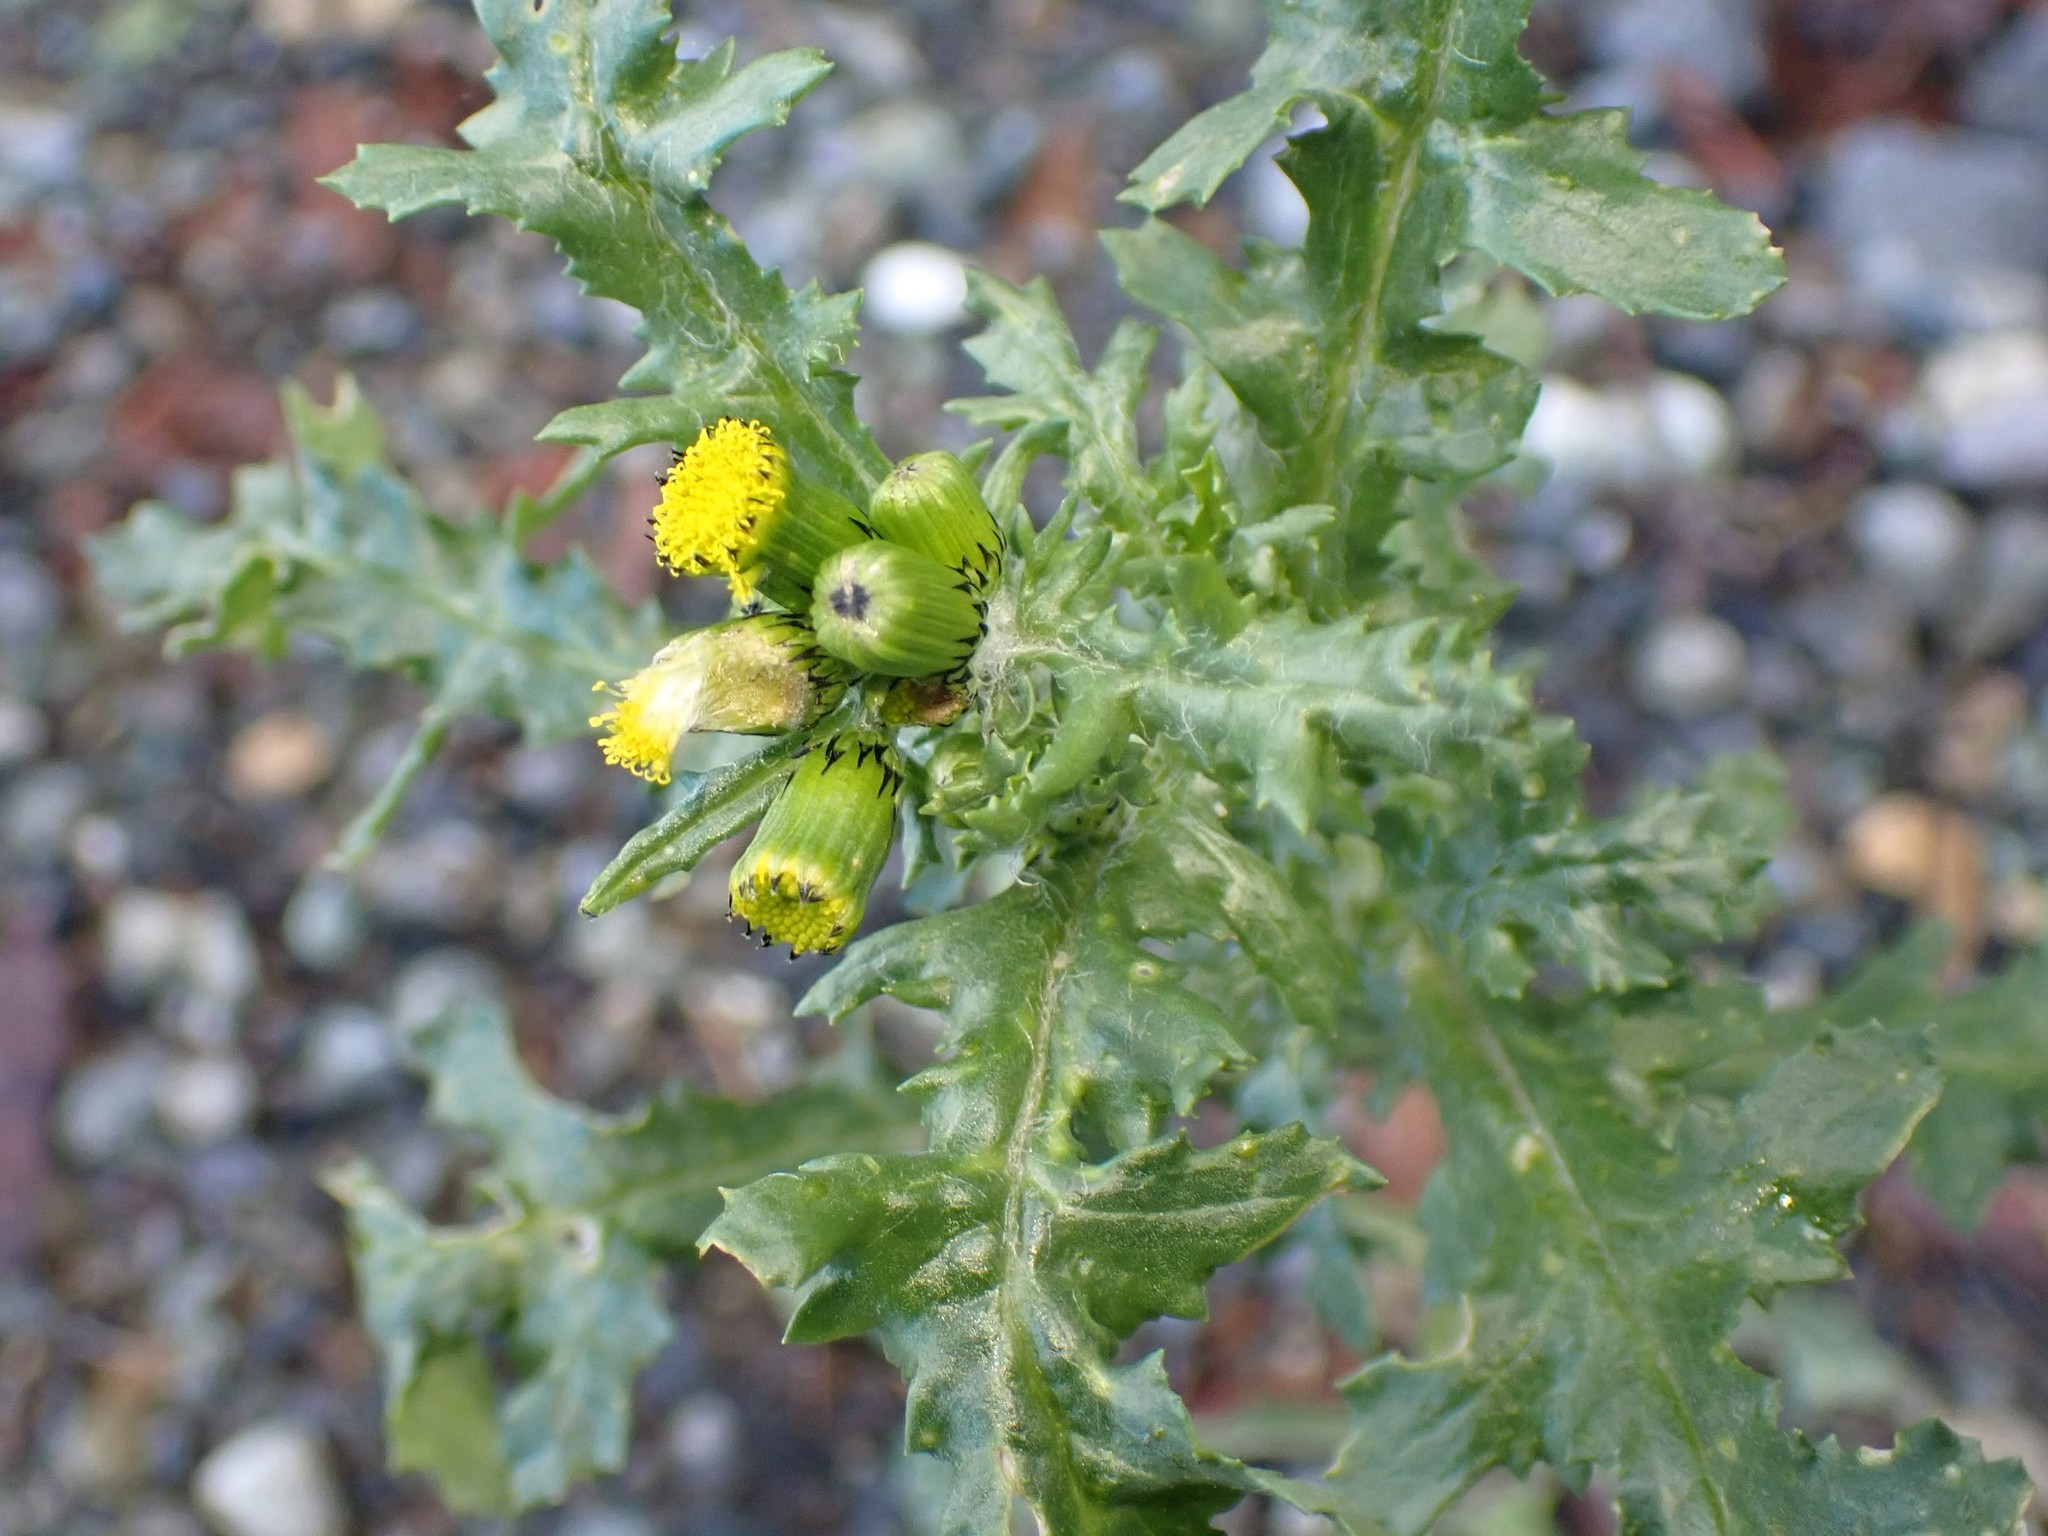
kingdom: Plantae
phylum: Tracheophyta
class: Magnoliopsida
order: Asterales
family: Asteraceae
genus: Senecio
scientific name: Senecio vulgaris
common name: Old-man-in-the-spring
